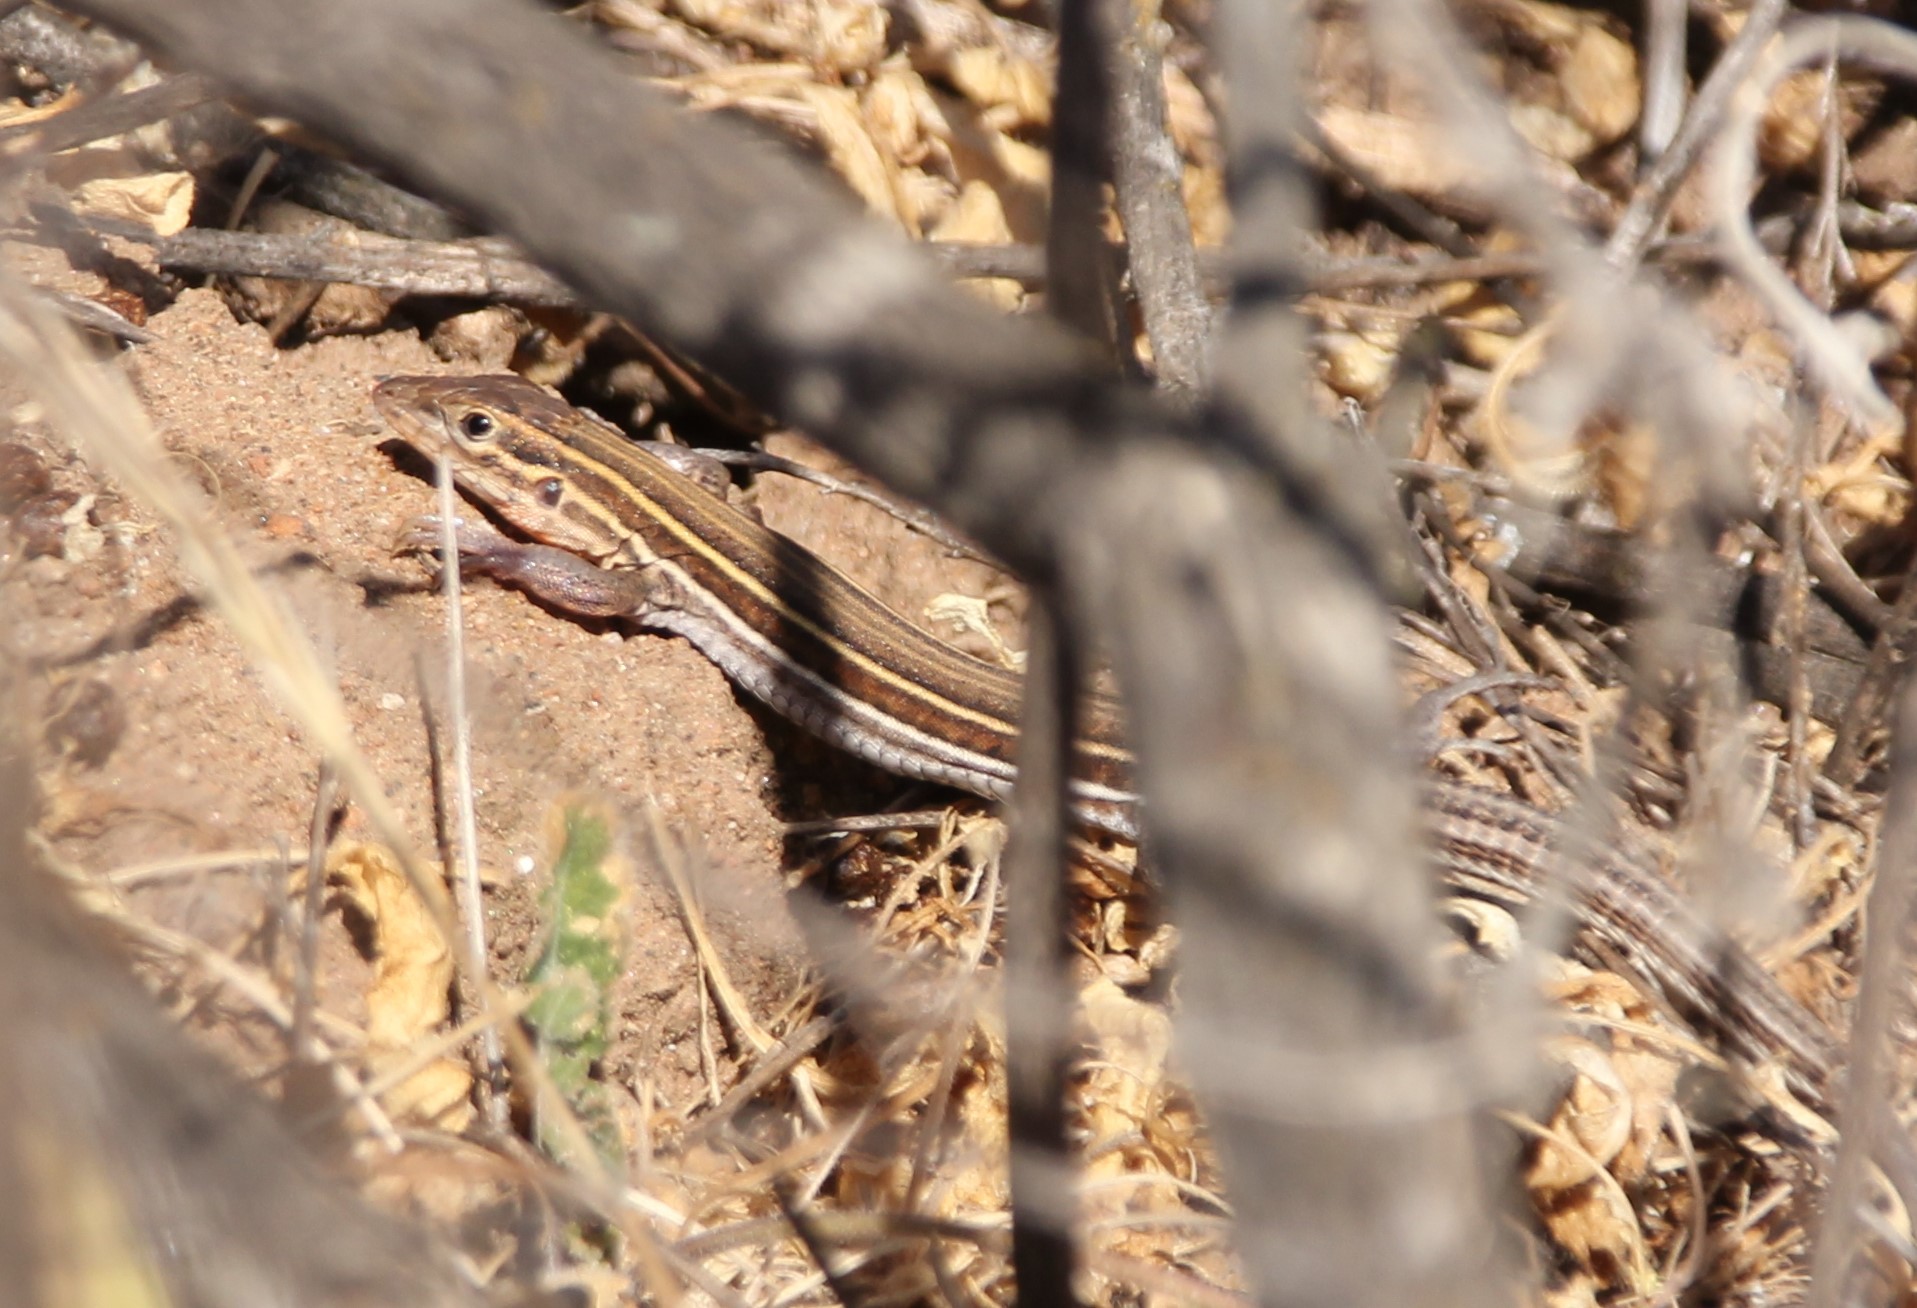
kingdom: Animalia
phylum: Chordata
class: Squamata
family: Teiidae
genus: Aspidoscelis
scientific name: Aspidoscelis hyperythrus
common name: Orange-throated race-runner
